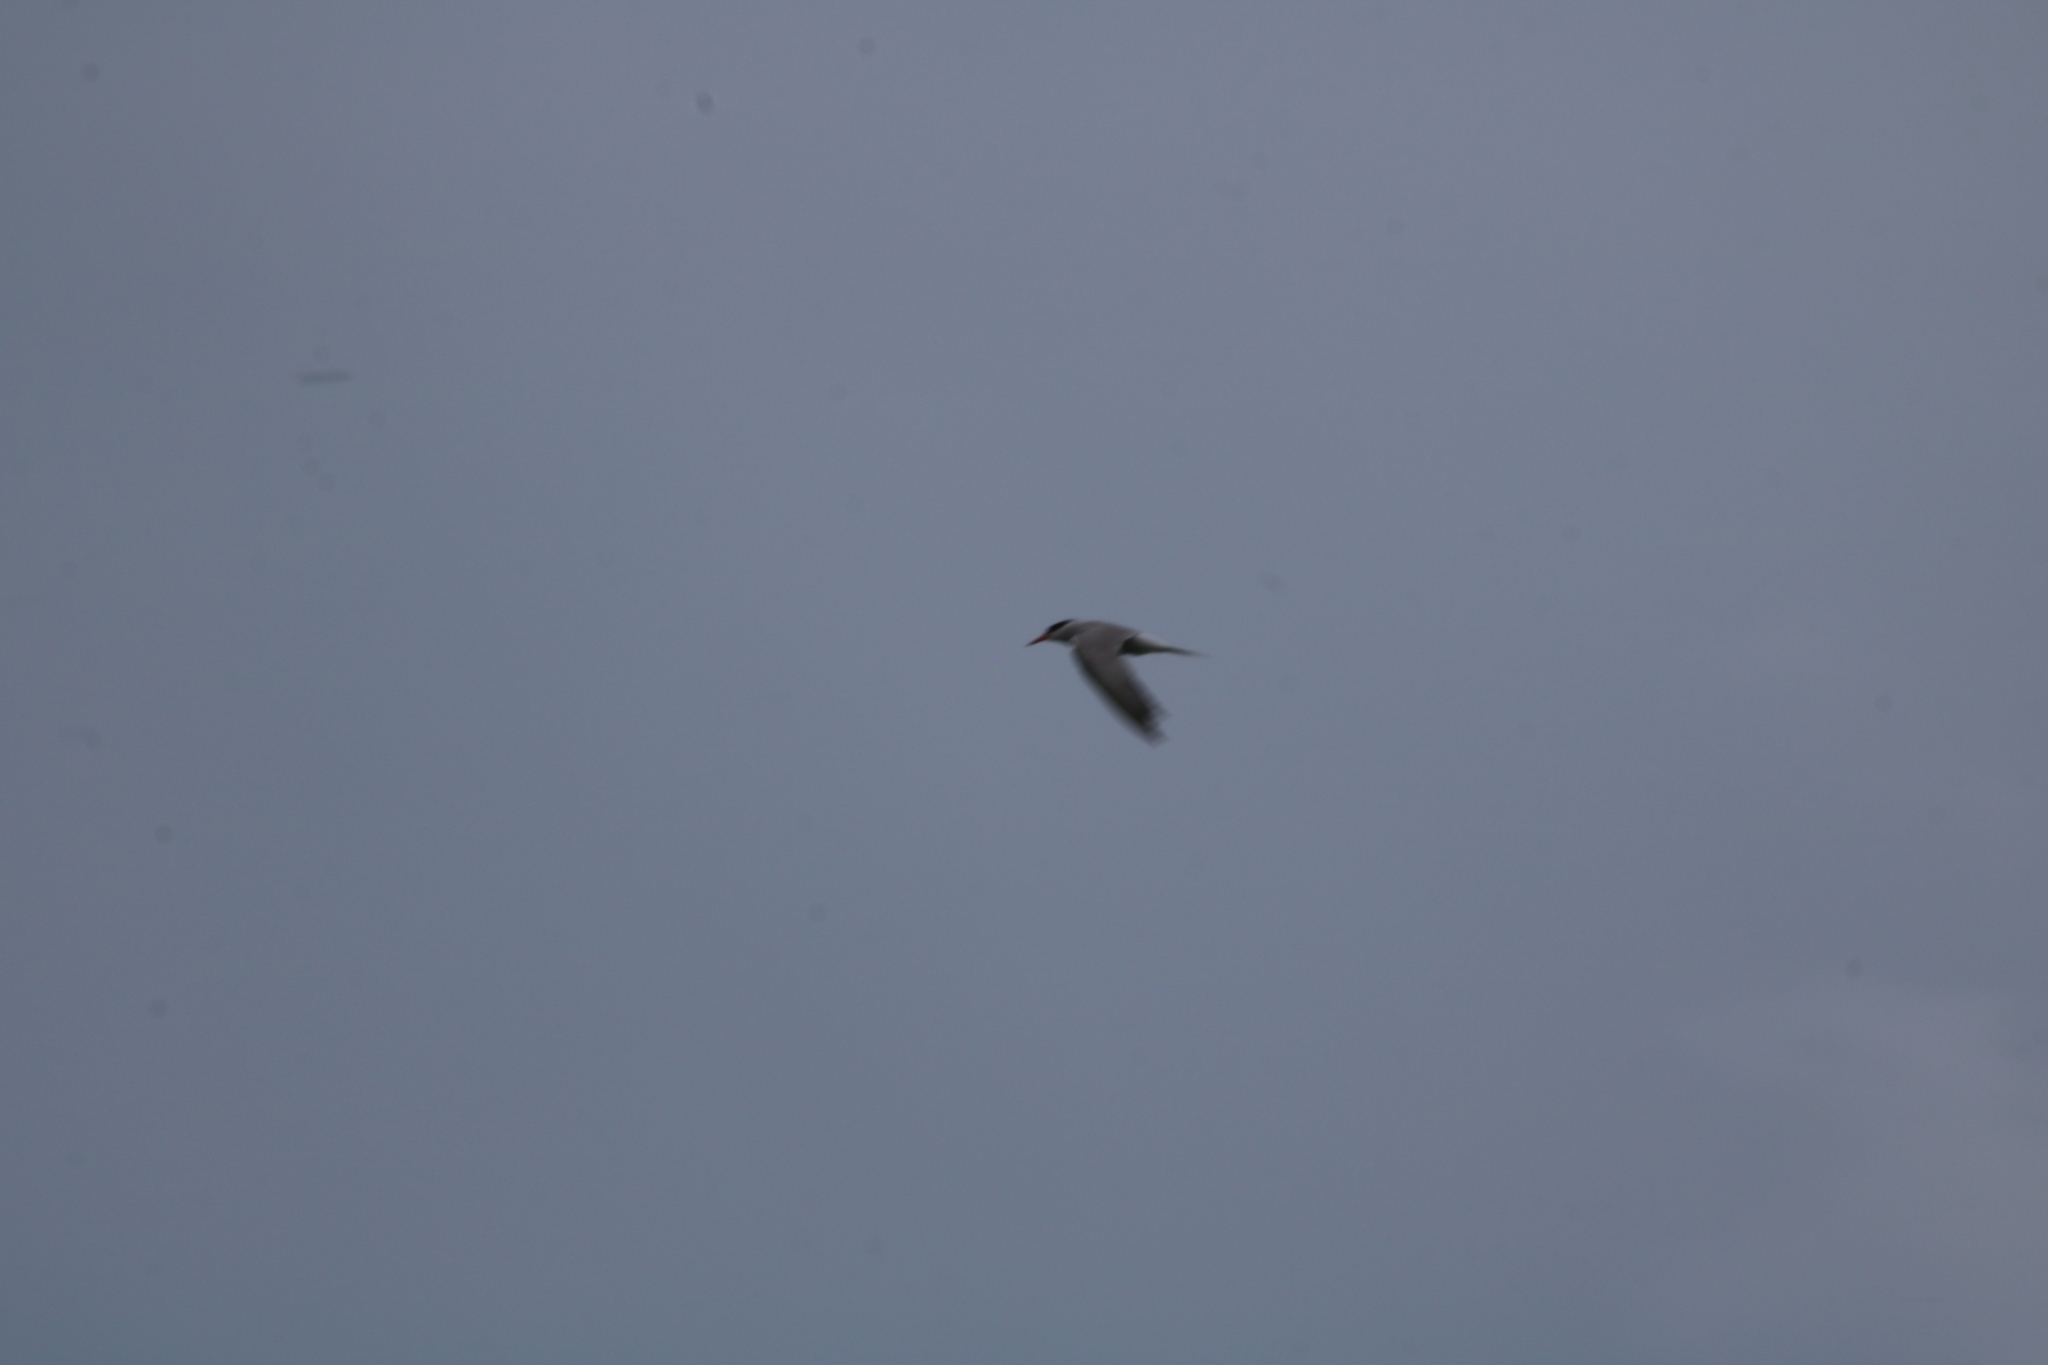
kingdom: Animalia
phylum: Chordata
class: Aves
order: Charadriiformes
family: Laridae
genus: Sterna
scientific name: Sterna hirundo
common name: Common tern
